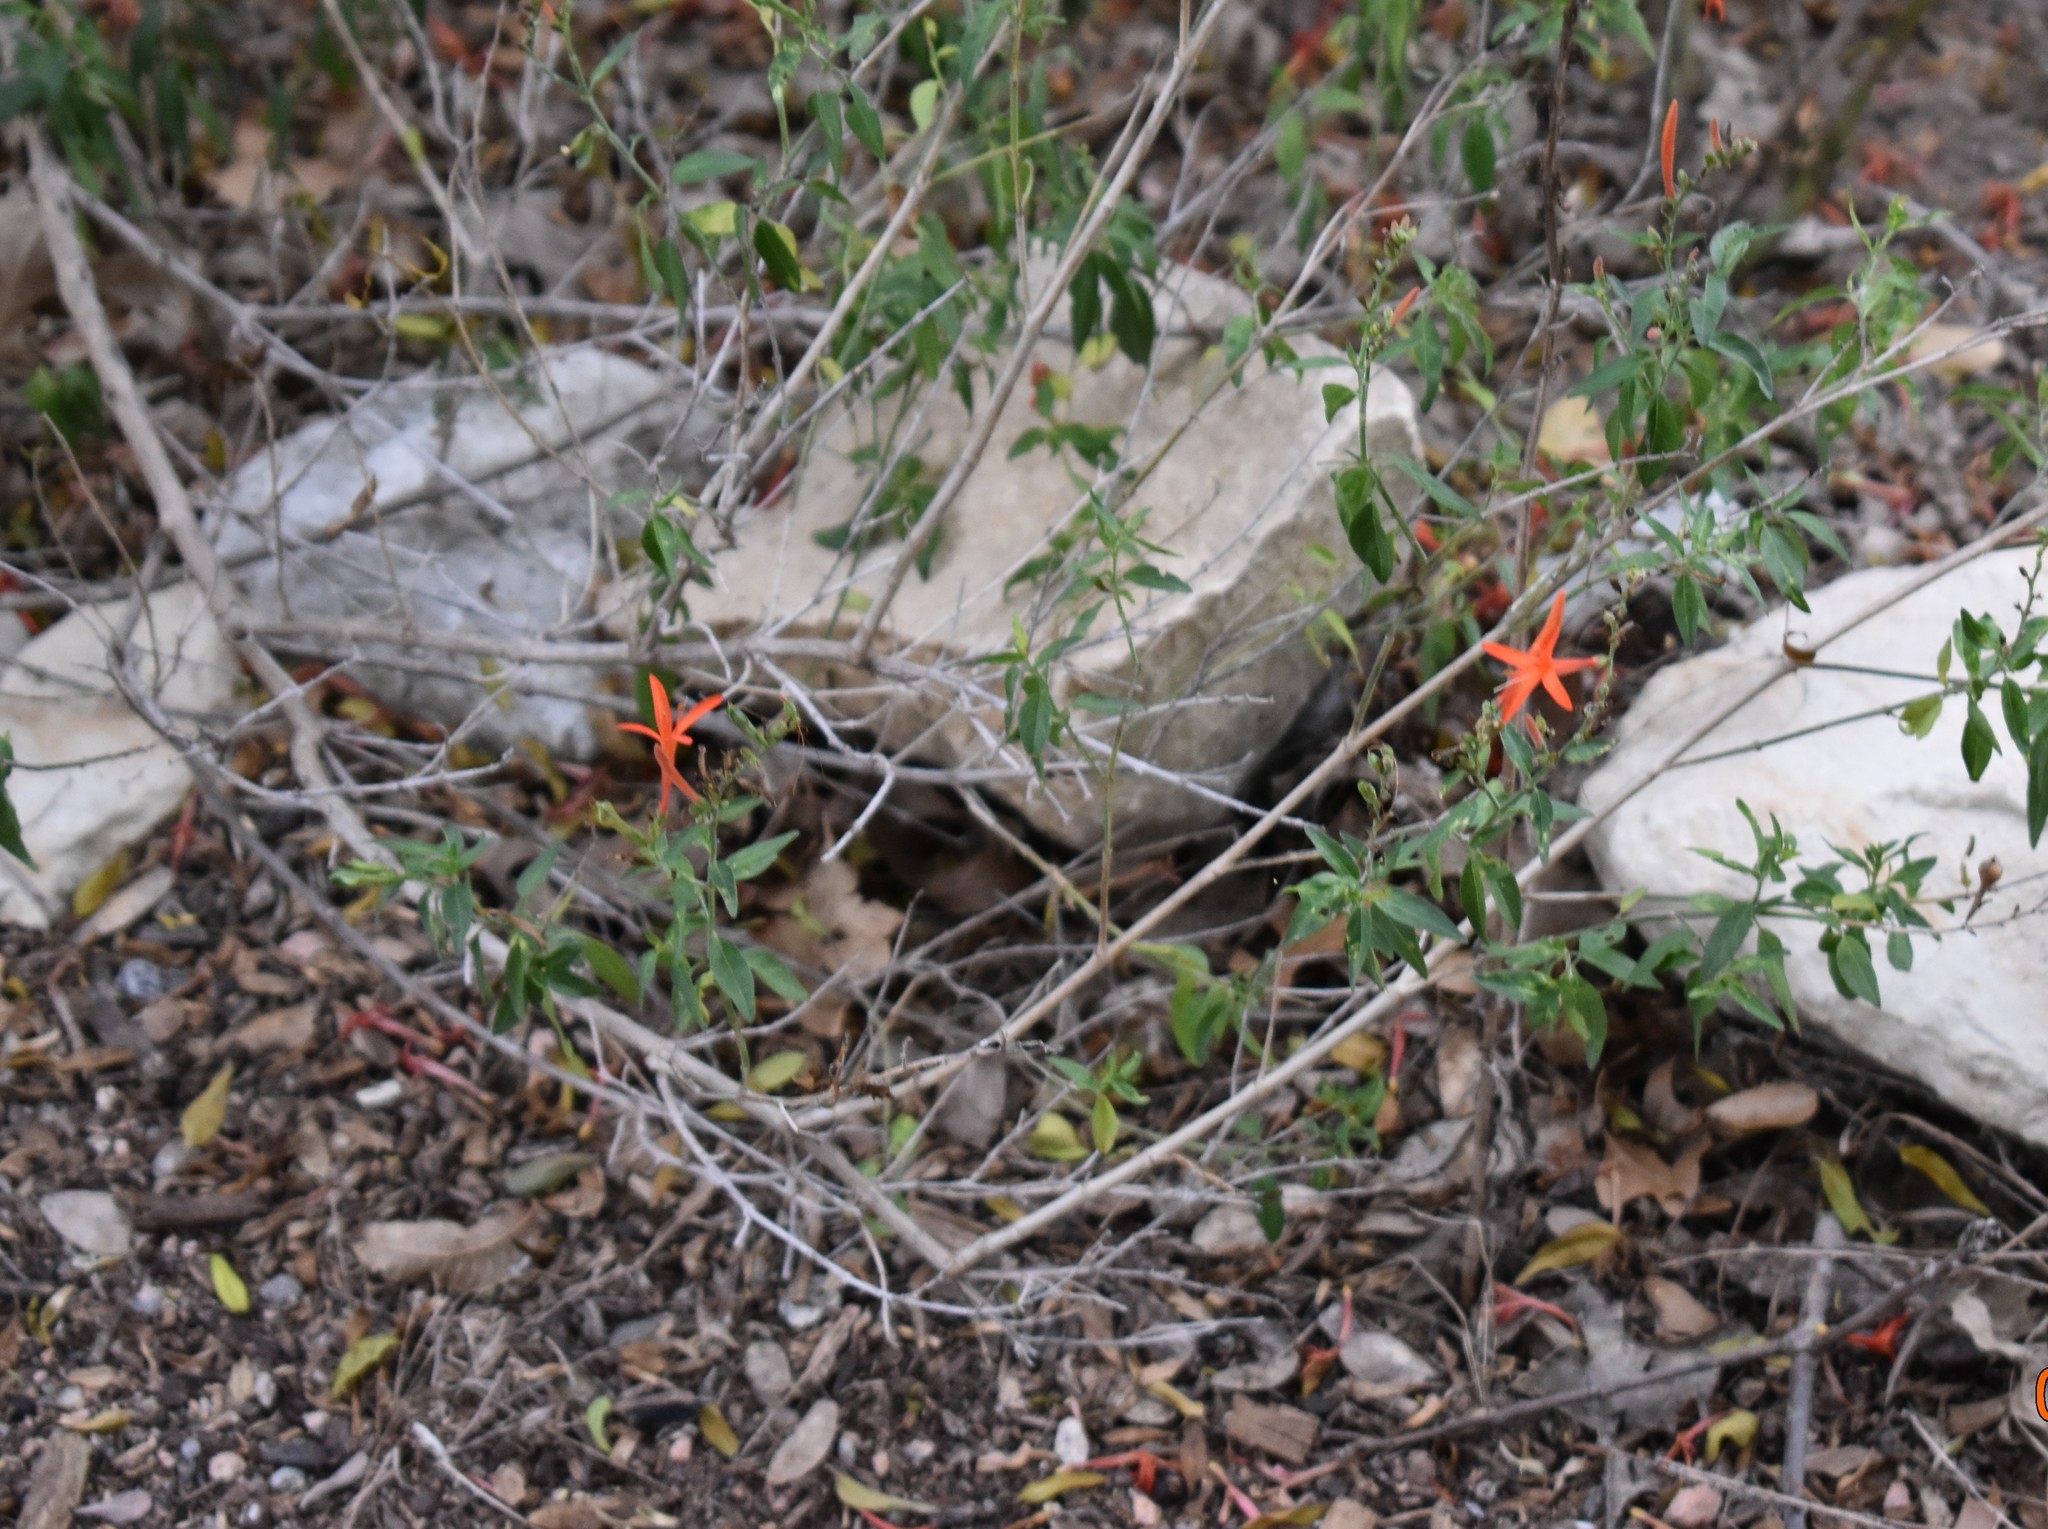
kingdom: Plantae
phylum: Tracheophyta
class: Magnoliopsida
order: Lamiales
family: Acanthaceae
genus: Anisacanthus
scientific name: Anisacanthus quadrifidus
